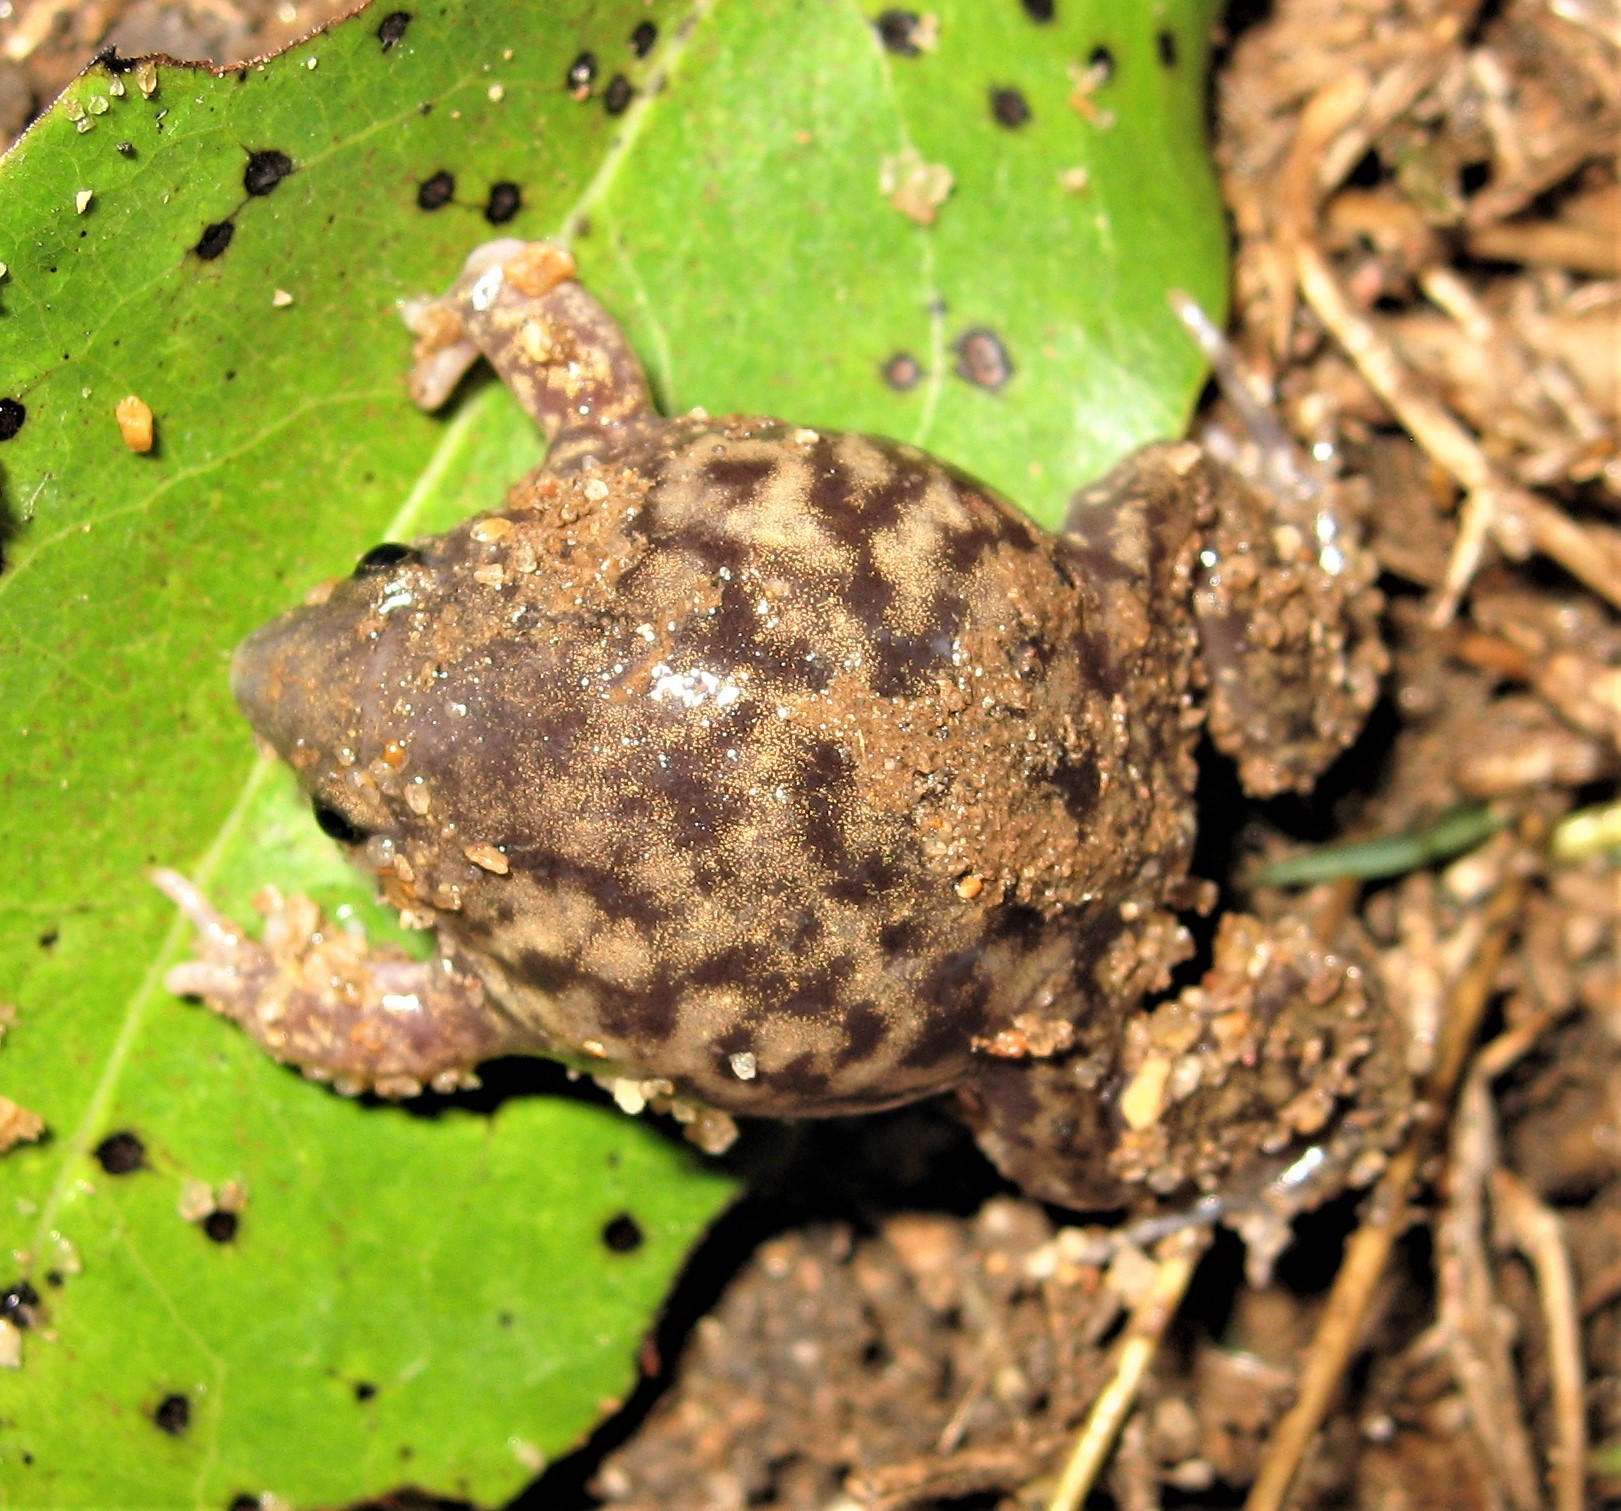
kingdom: Animalia
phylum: Chordata
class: Amphibia
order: Anura
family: Hemisotidae
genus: Hemisus
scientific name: Hemisus marmoratus
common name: Mottled shovel-nosed frog
